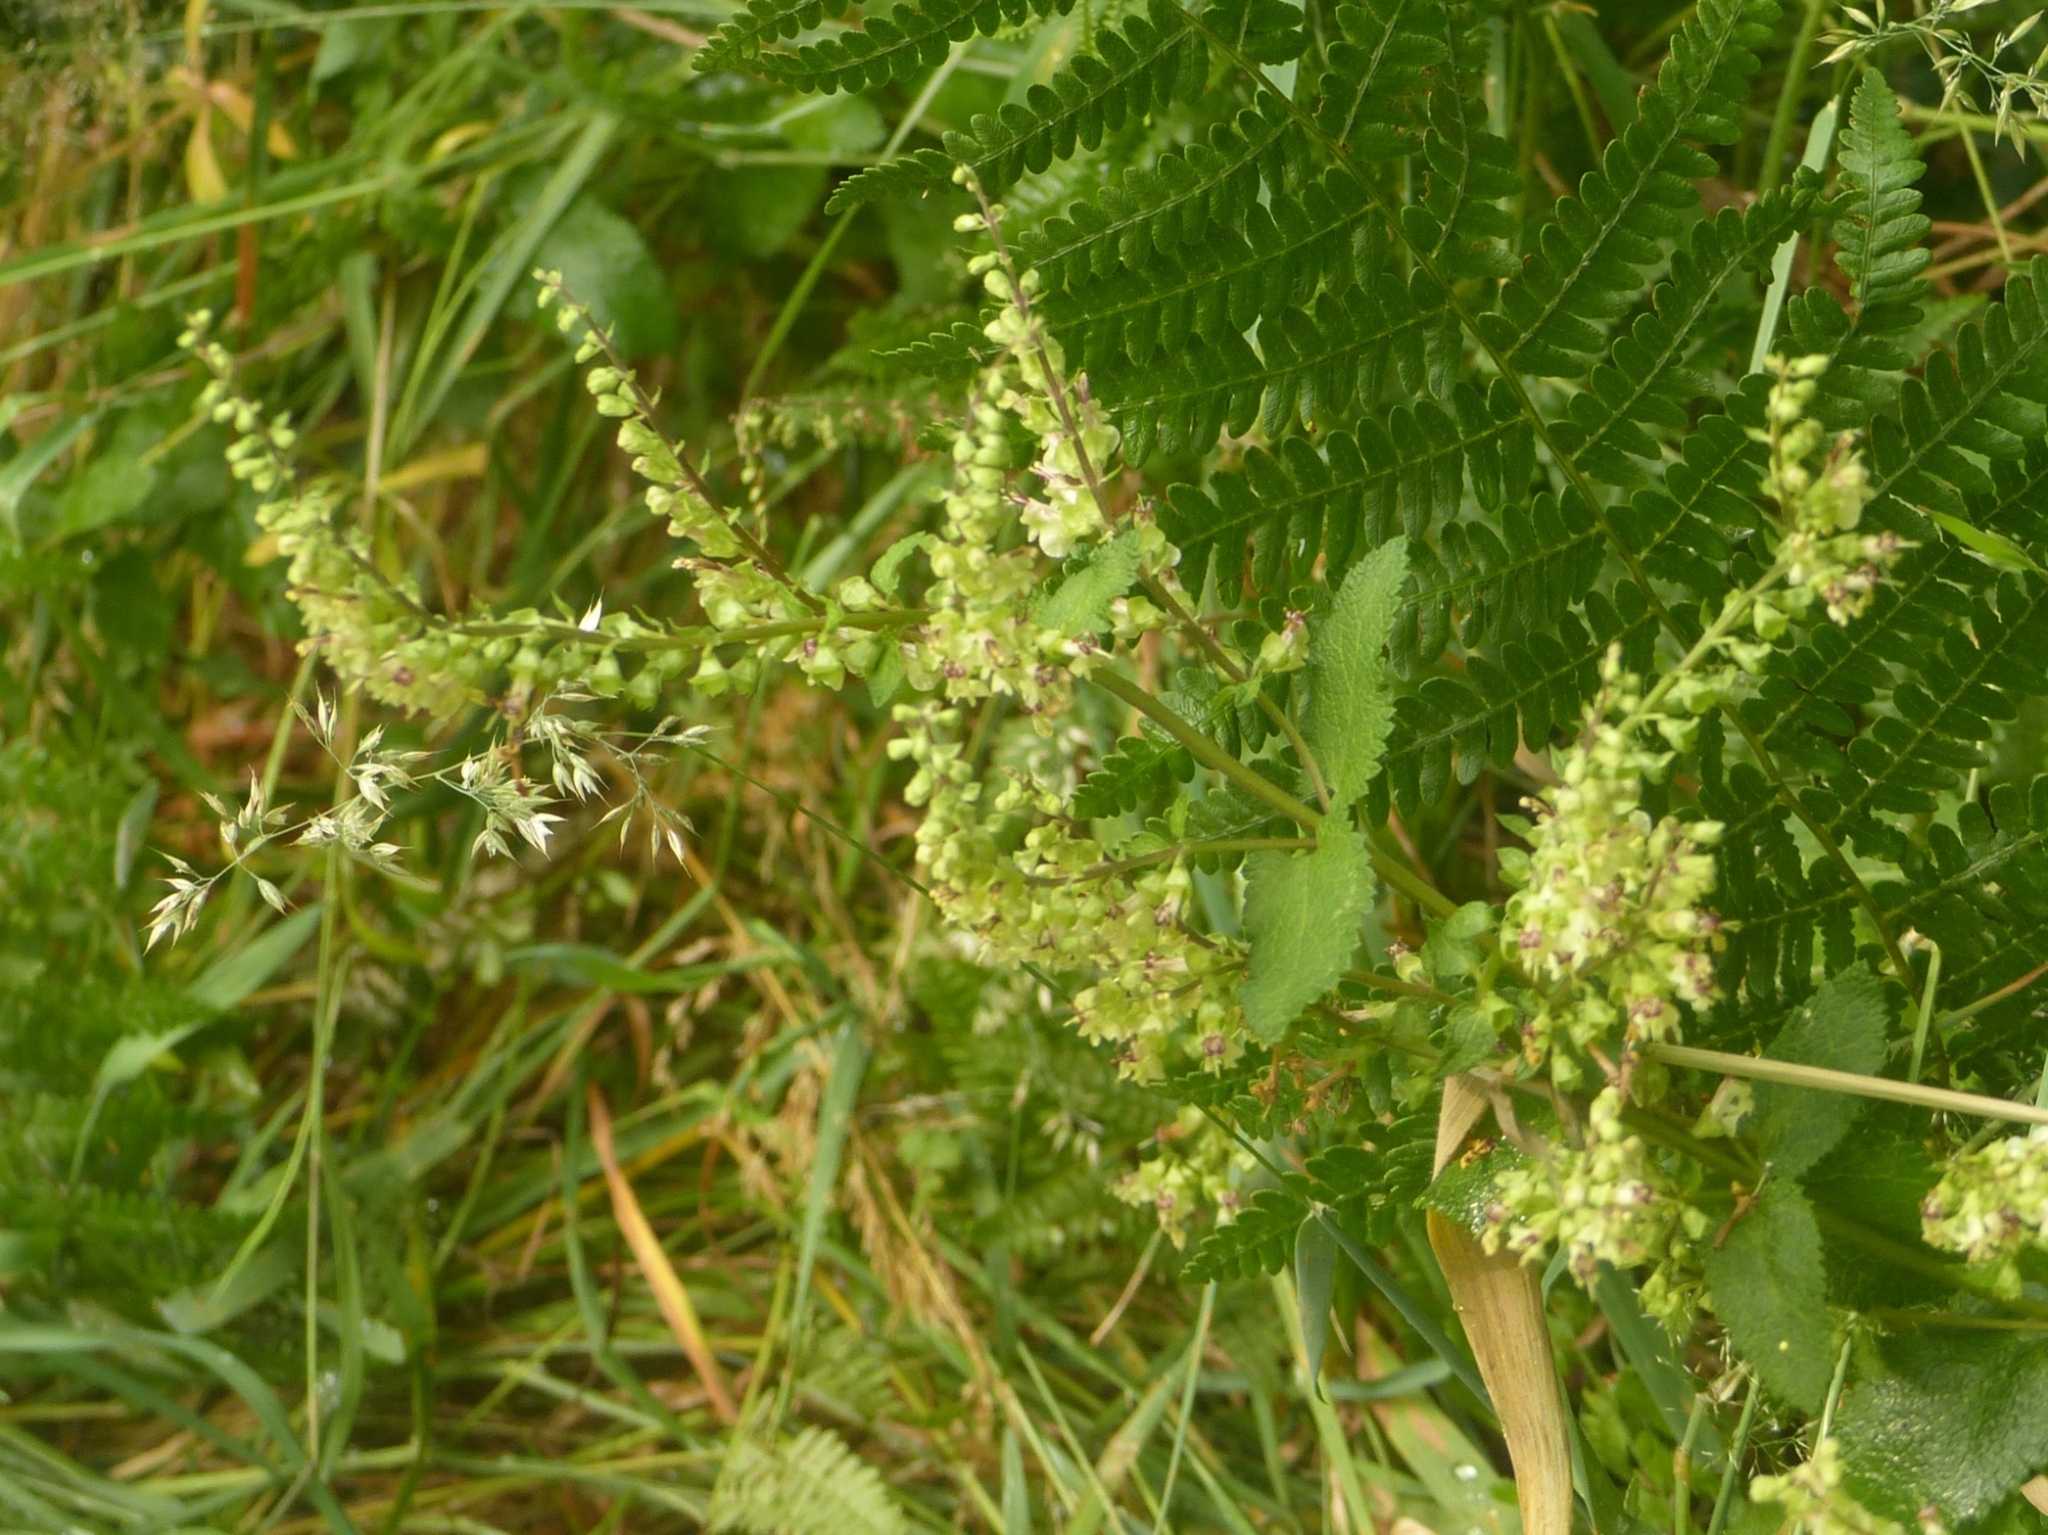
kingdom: Plantae
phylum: Tracheophyta
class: Magnoliopsida
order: Lamiales
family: Lamiaceae
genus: Teucrium
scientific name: Teucrium scorodonia
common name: Woodland germander
